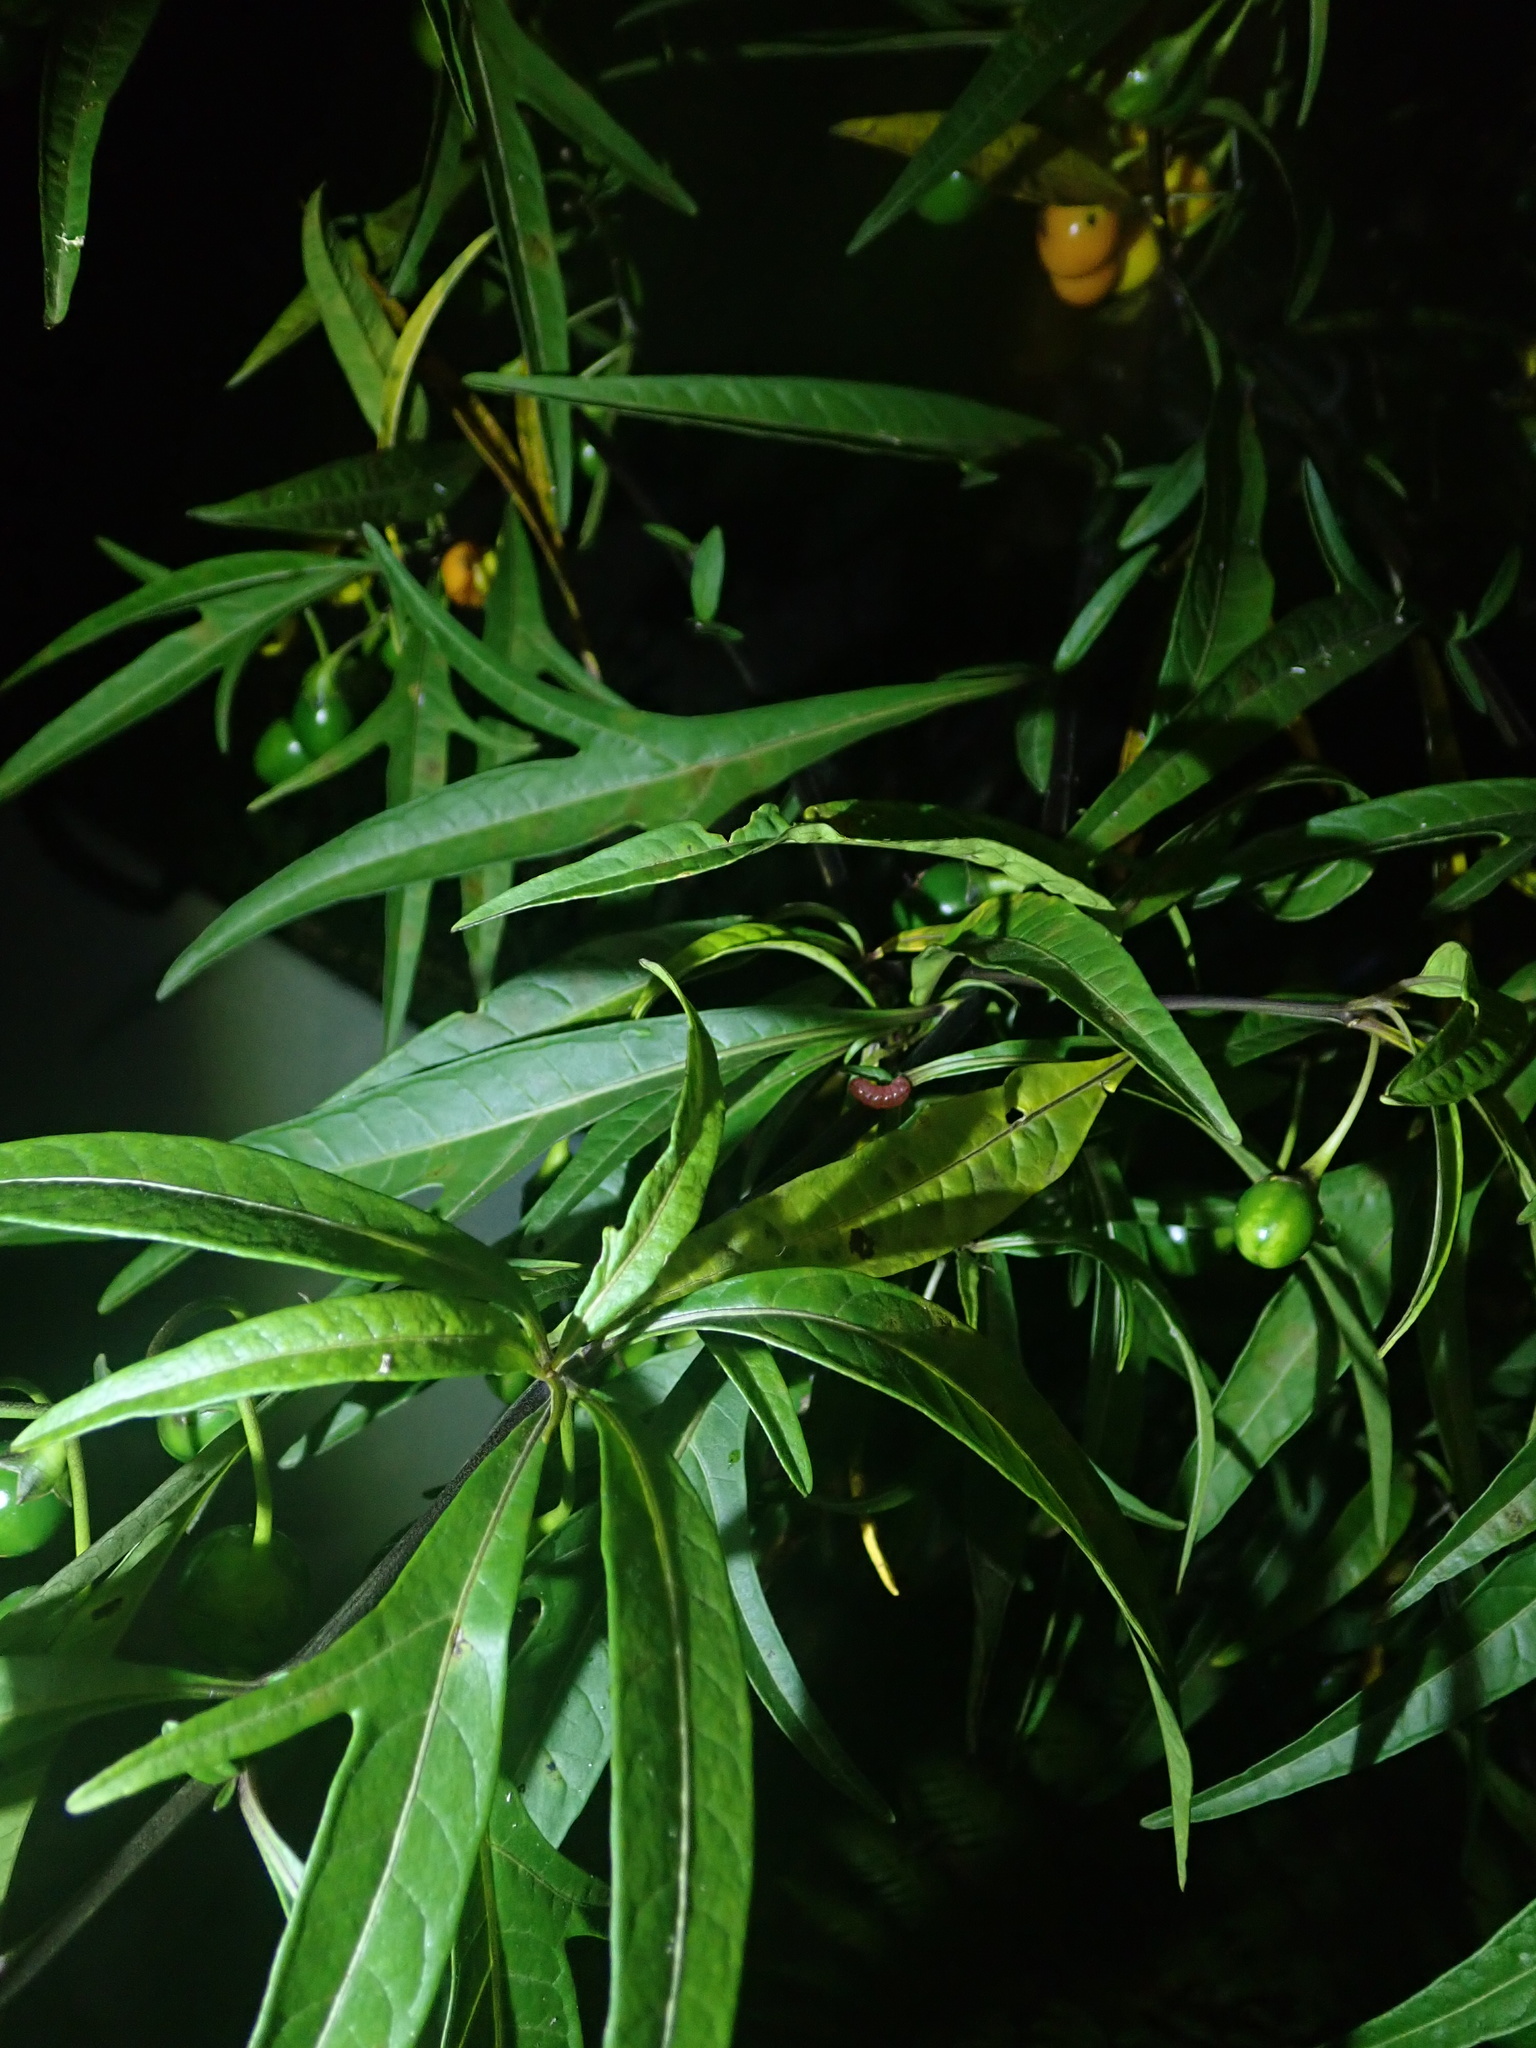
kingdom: Animalia
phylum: Arthropoda
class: Insecta
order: Lepidoptera
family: Crambidae
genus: Sceliodes
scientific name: Sceliodes cordalis
